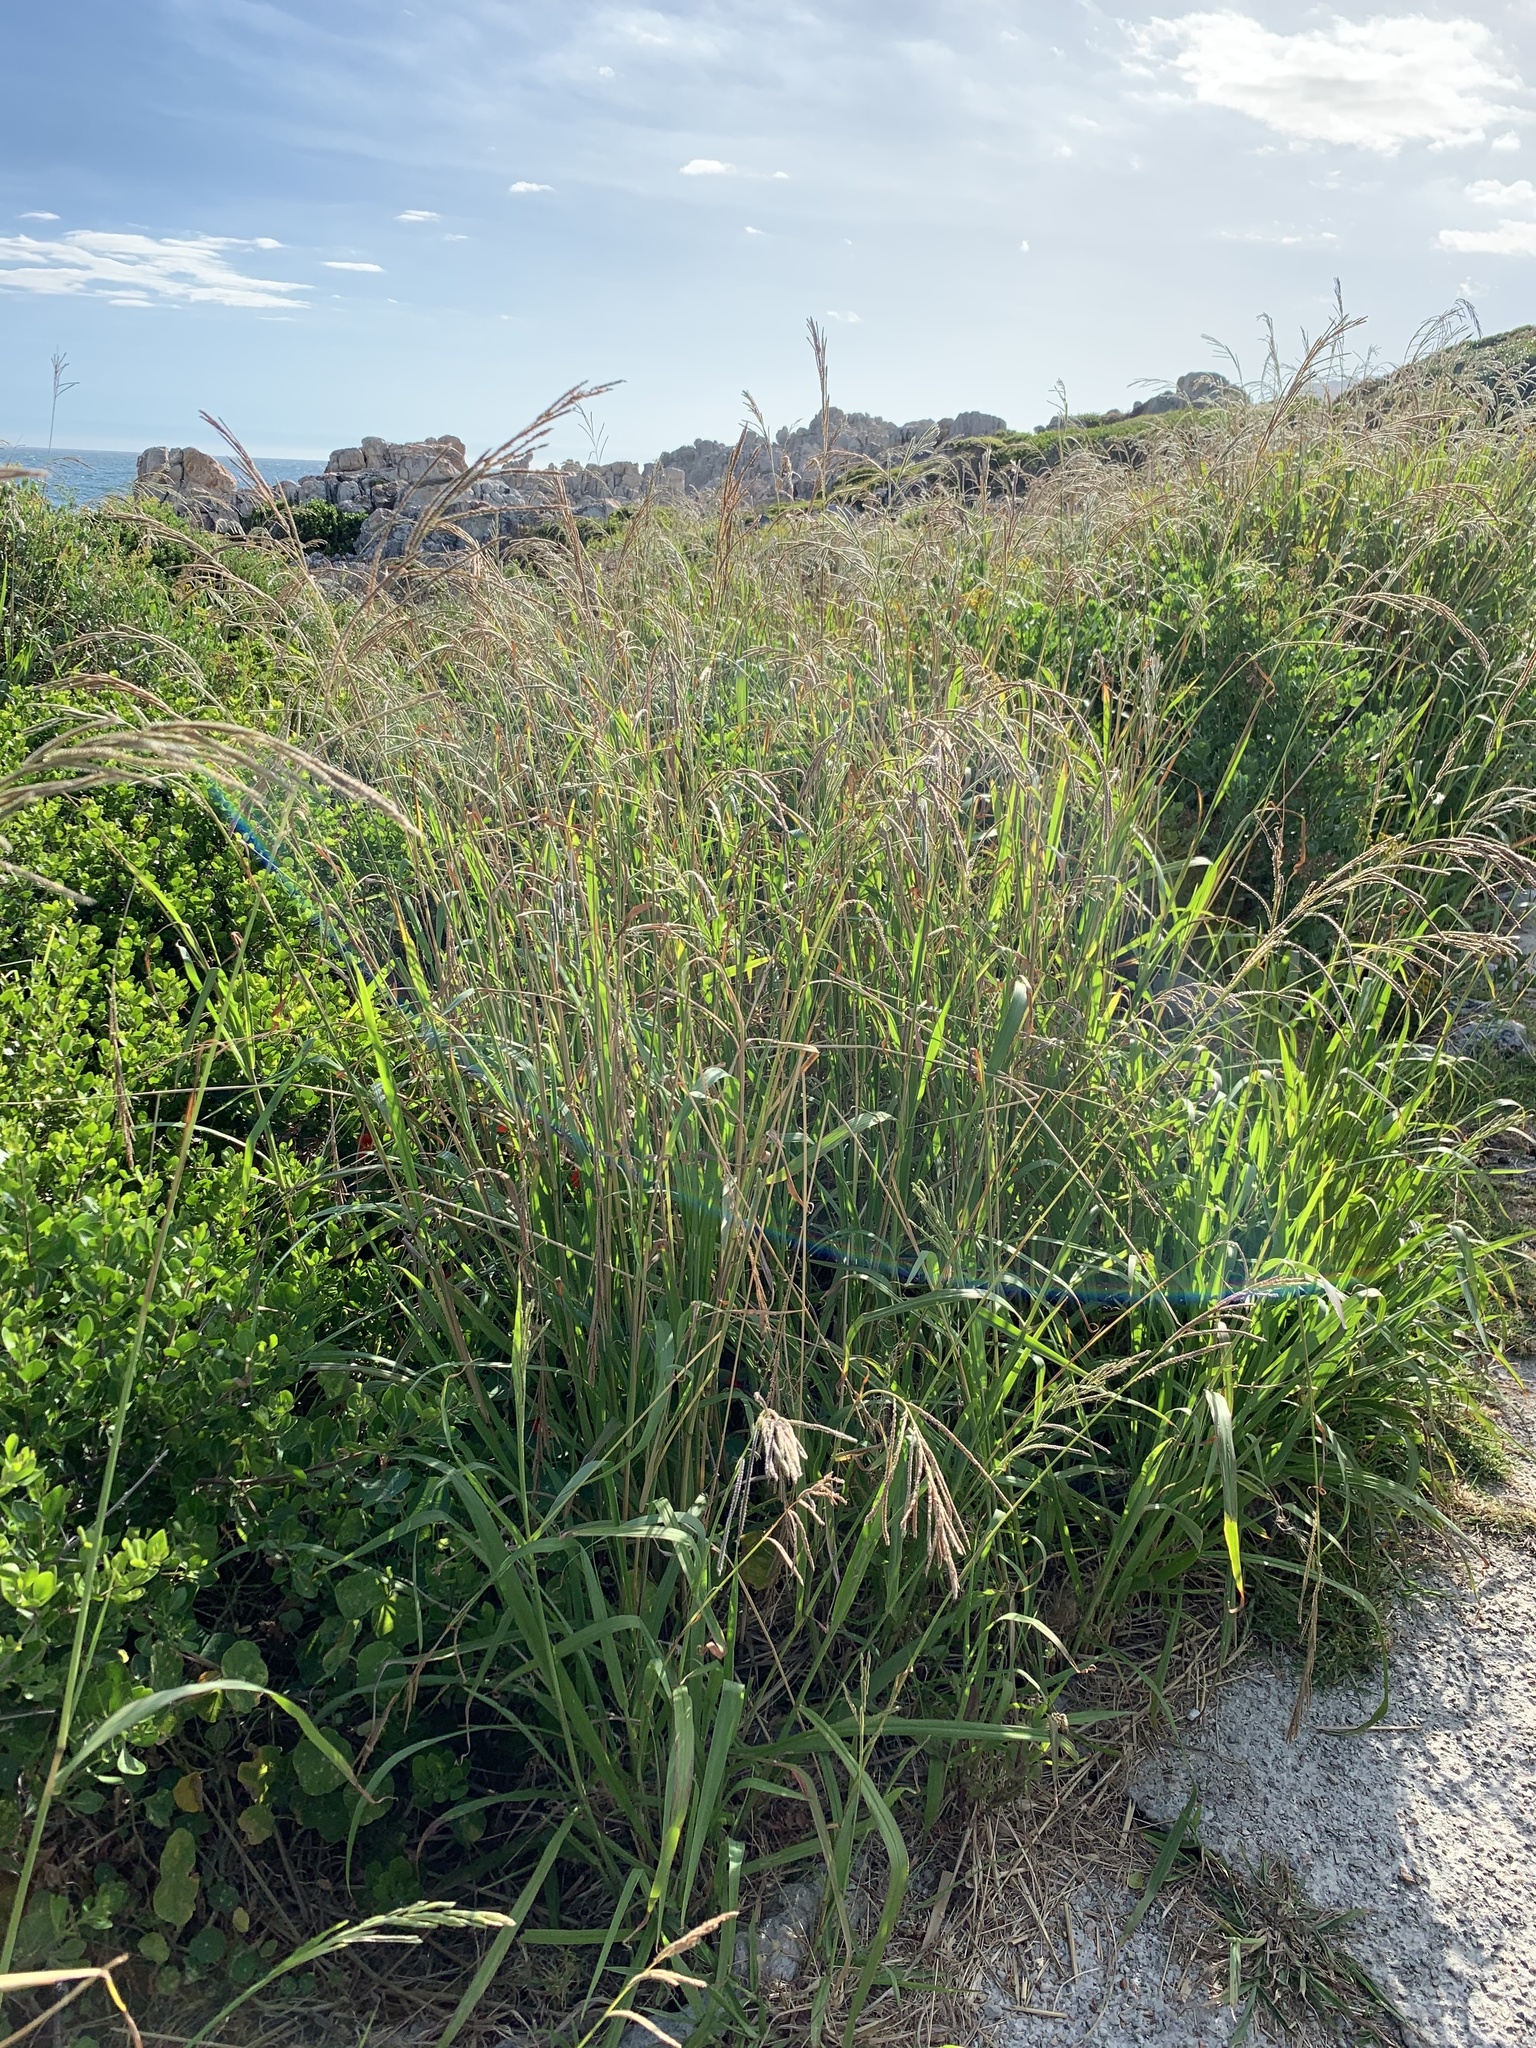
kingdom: Plantae
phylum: Tracheophyta
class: Liliopsida
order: Poales
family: Poaceae
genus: Paspalum
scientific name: Paspalum urvillei
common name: Vasey's grass
